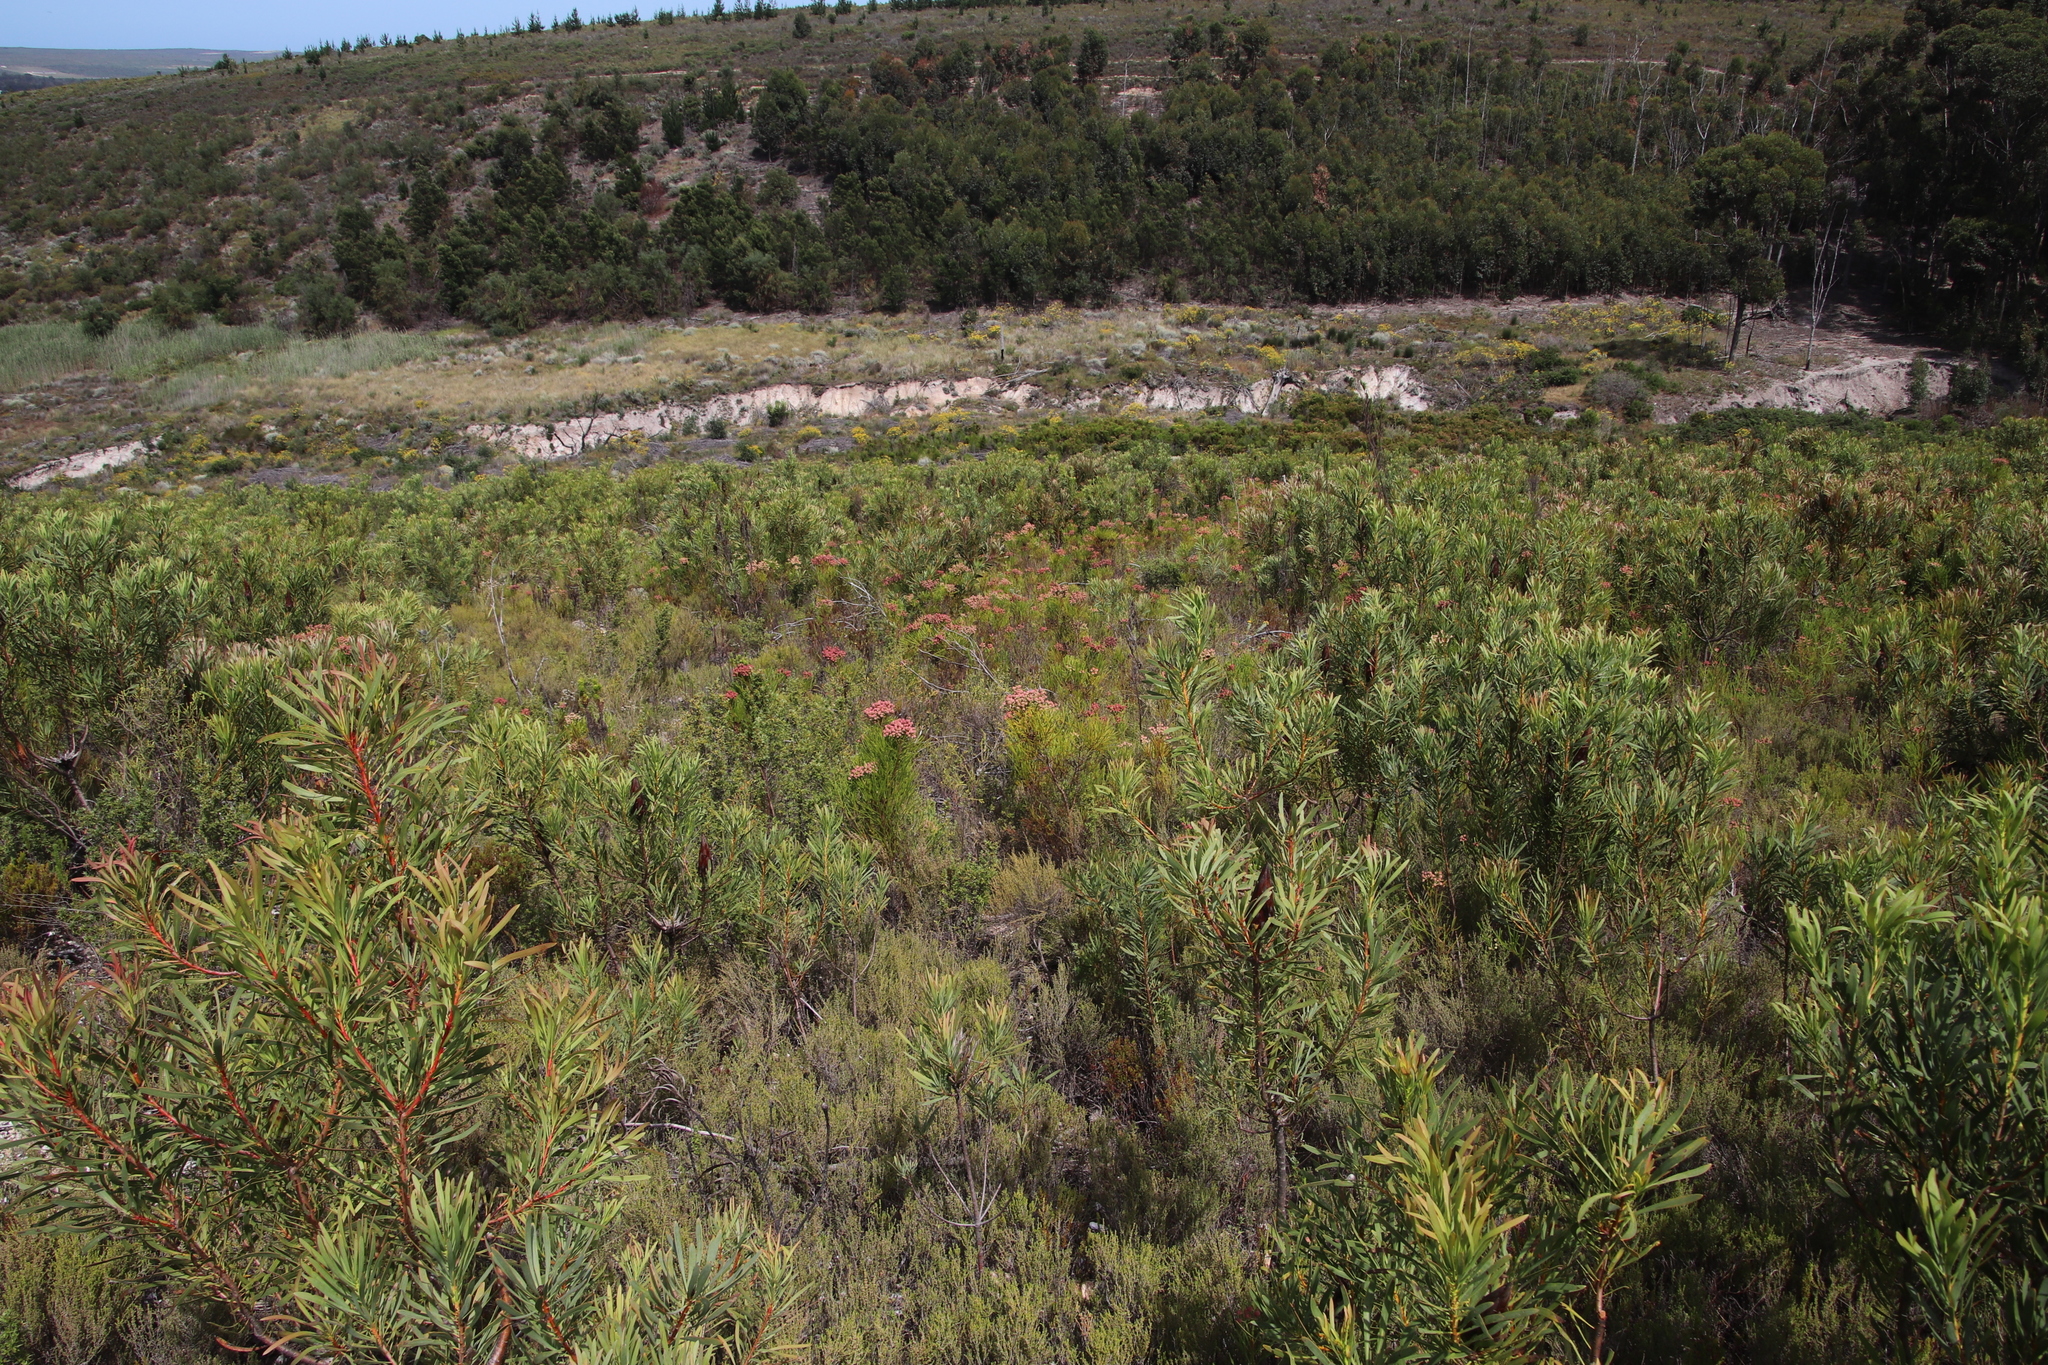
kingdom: Plantae
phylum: Tracheophyta
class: Magnoliopsida
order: Bruniales
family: Bruniaceae
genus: Berzelia
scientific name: Berzelia lanuginosa
